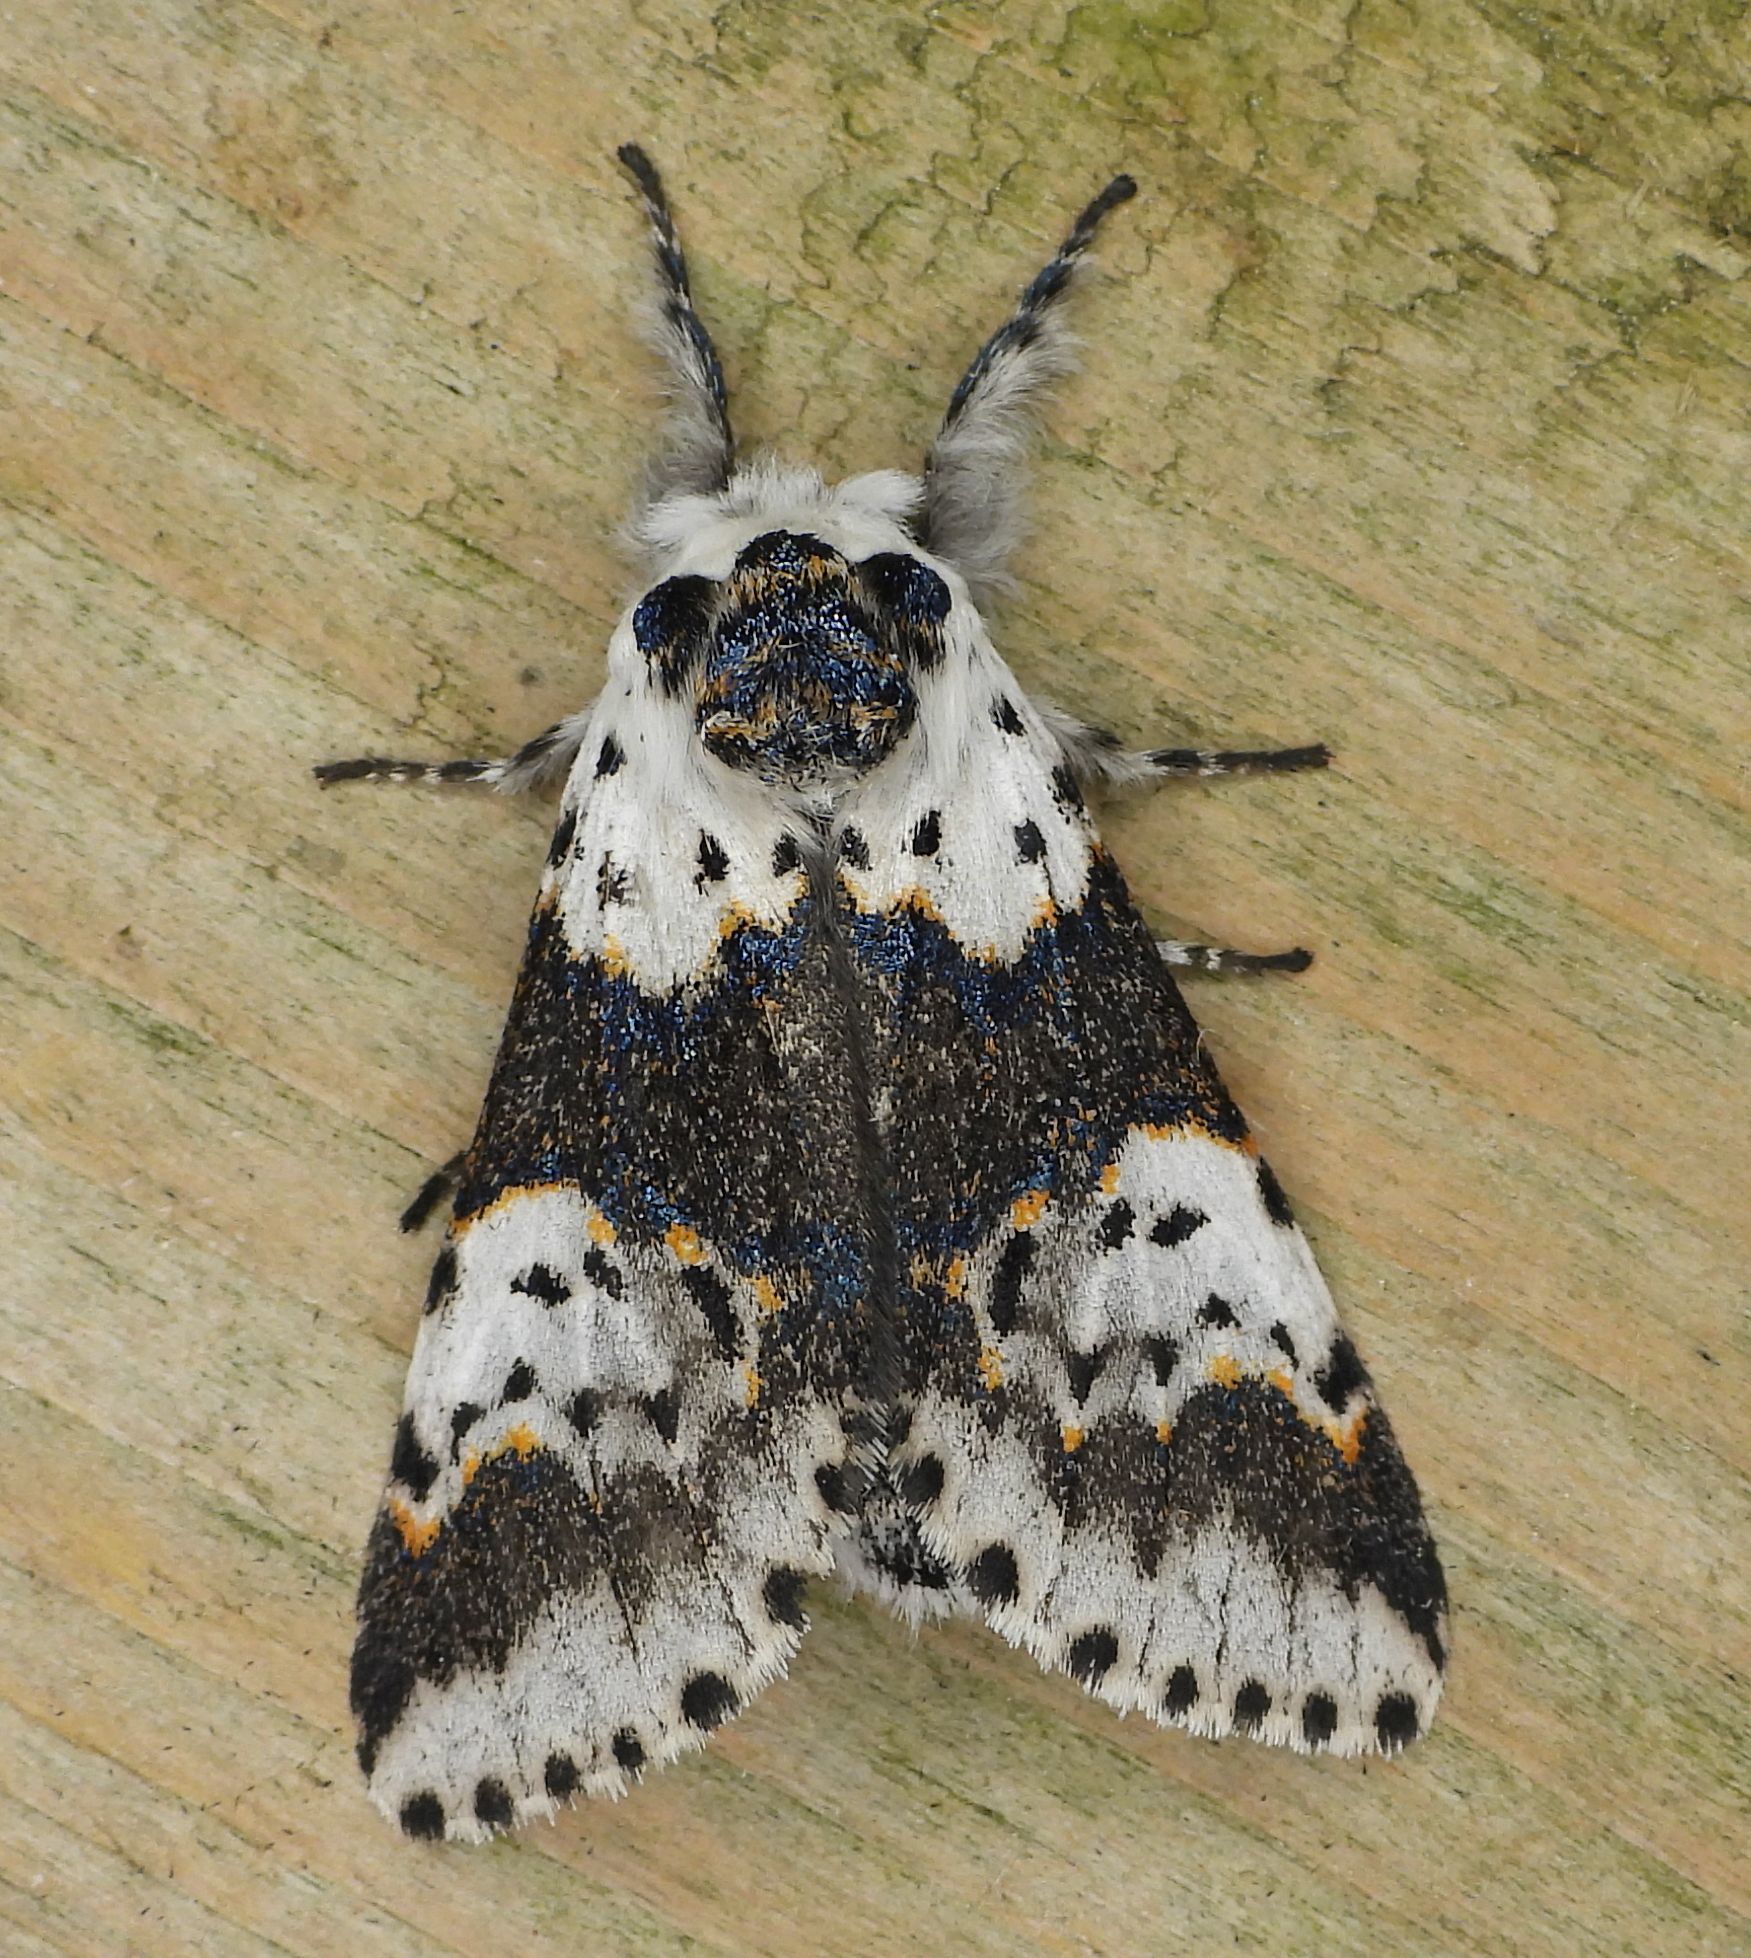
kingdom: Animalia
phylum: Arthropoda
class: Insecta
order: Lepidoptera
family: Notodontidae
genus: Furcula
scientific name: Furcula borealis
